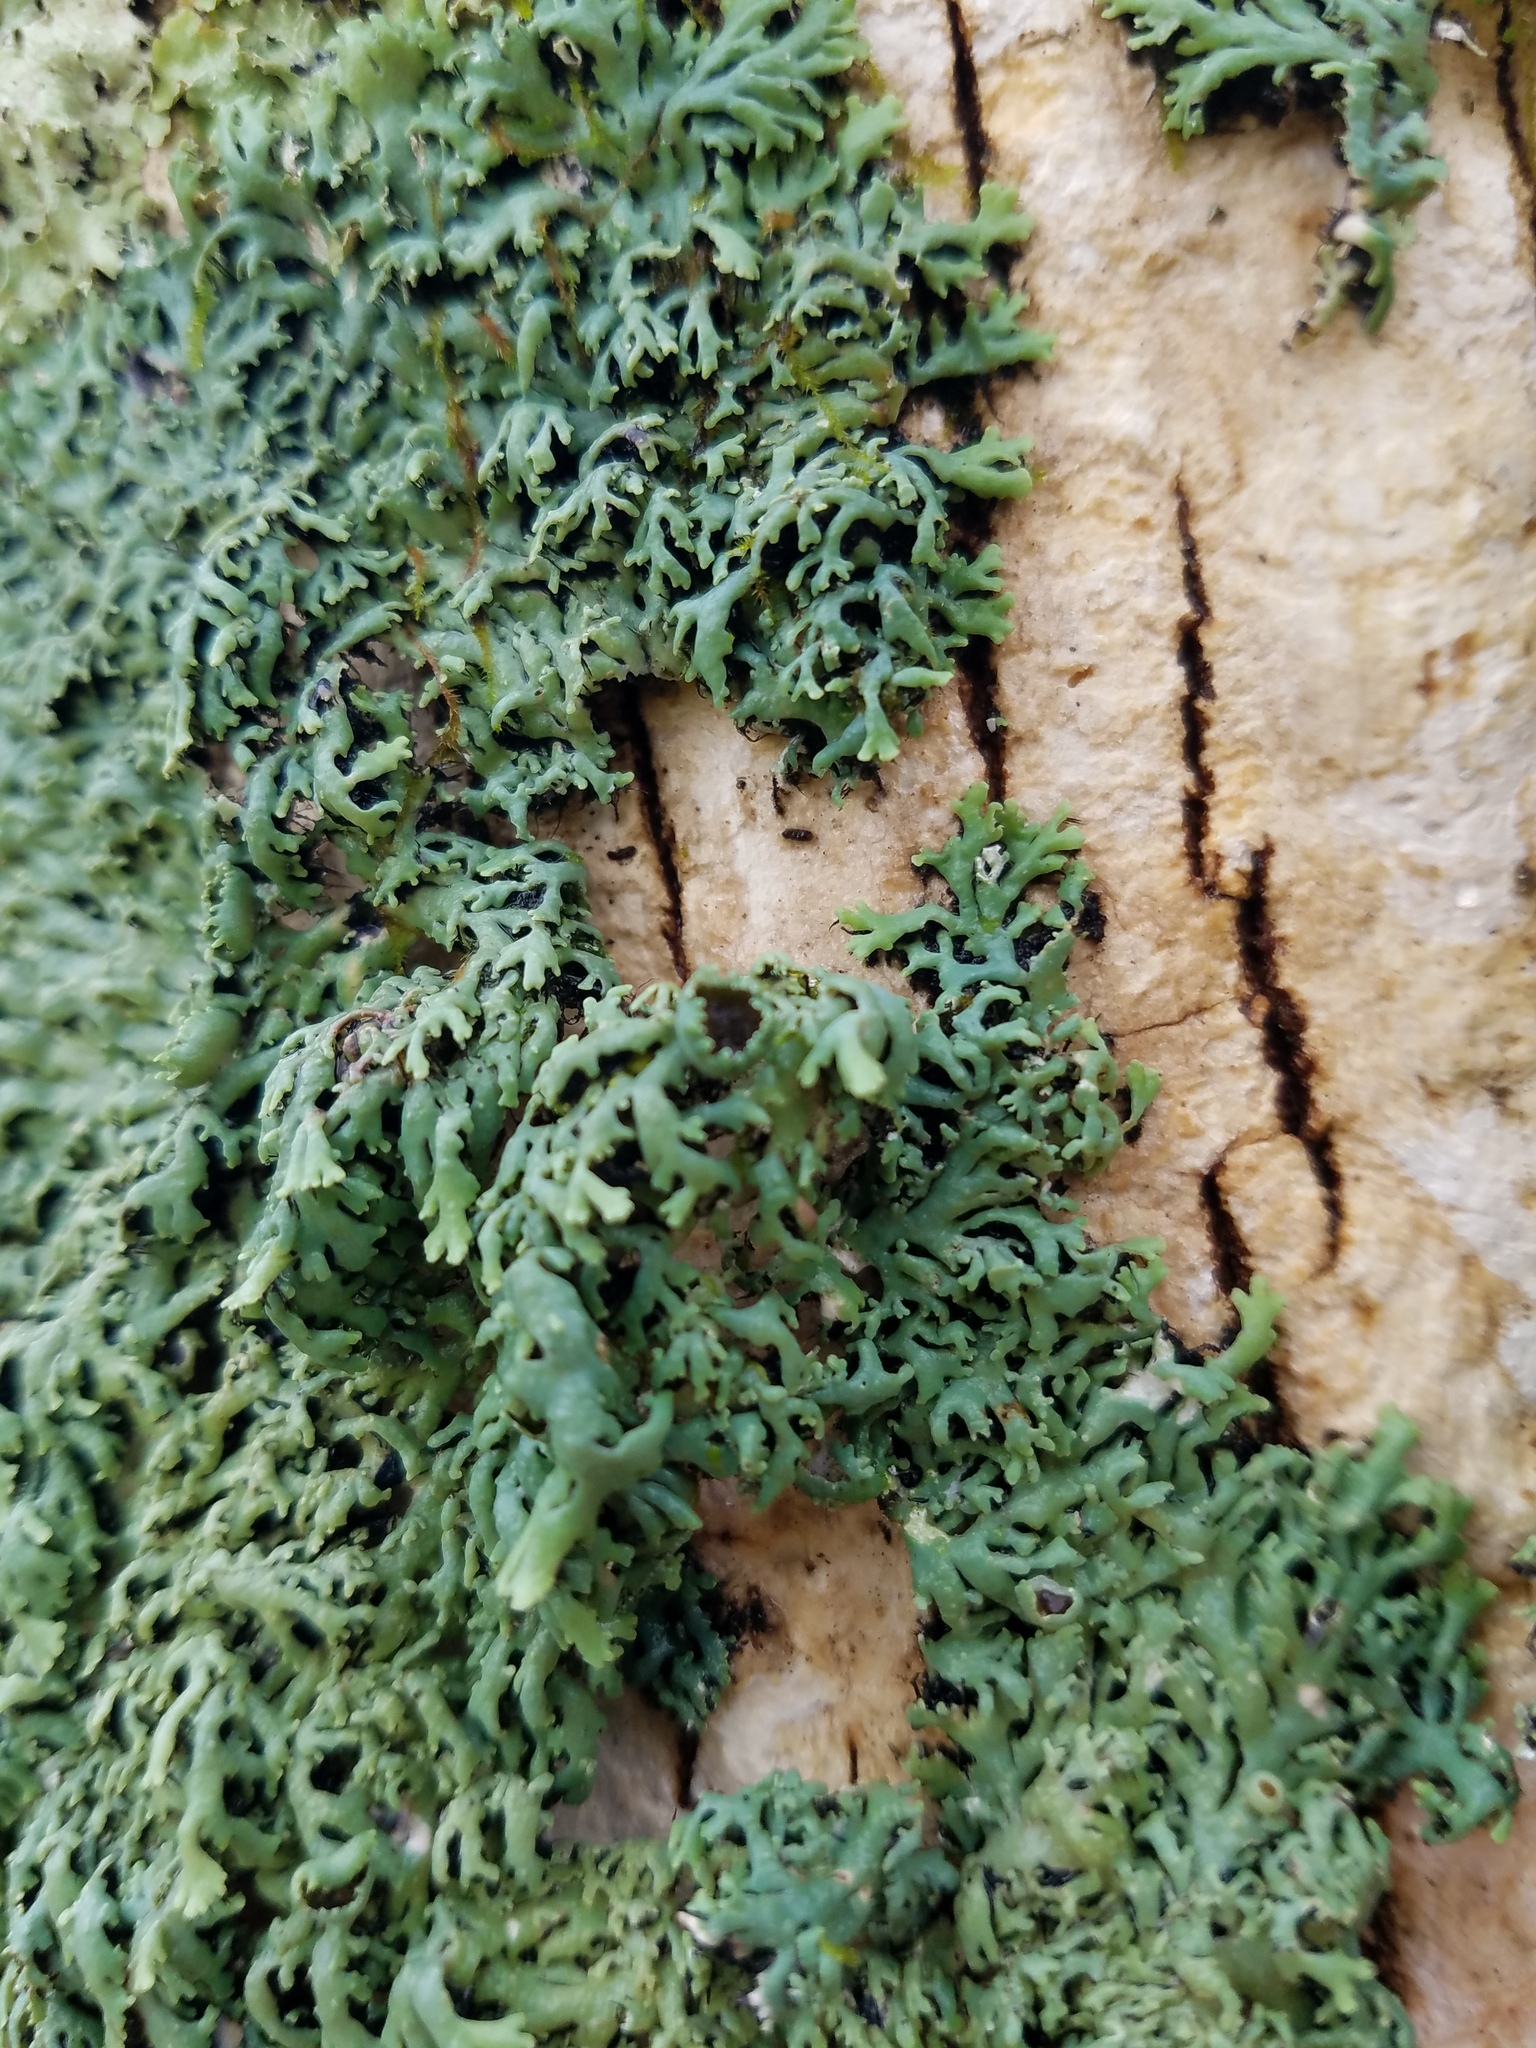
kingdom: Fungi
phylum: Ascomycota
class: Lecanoromycetes
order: Caliciales
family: Physciaceae
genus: Polyblastidium
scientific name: Polyblastidium hypoleucum
